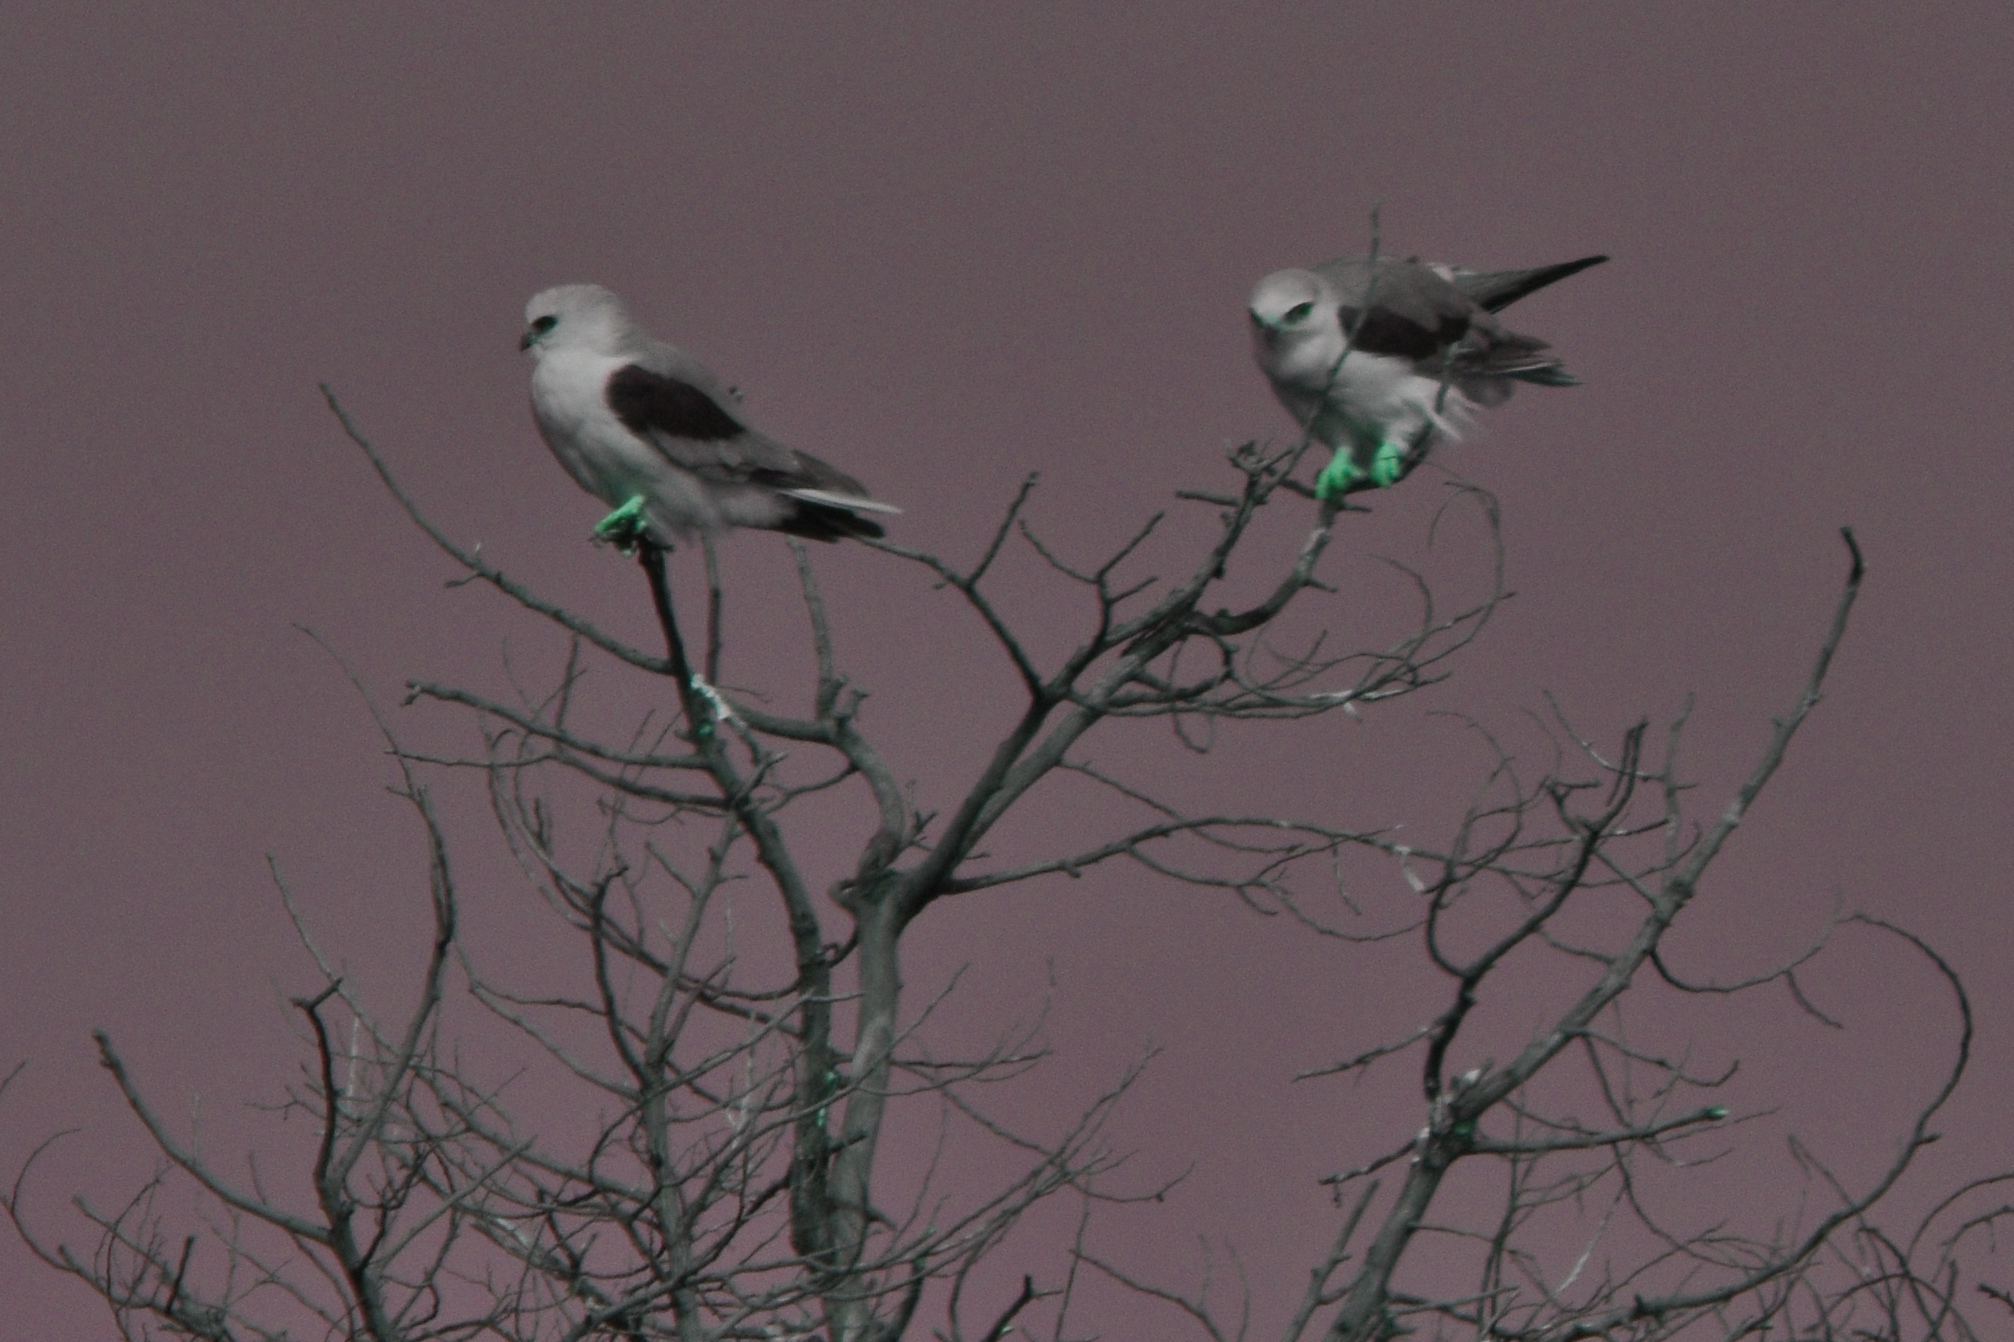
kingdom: Animalia
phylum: Chordata
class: Aves
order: Accipitriformes
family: Accipitridae
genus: Elanus
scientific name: Elanus leucurus
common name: White-tailed kite
